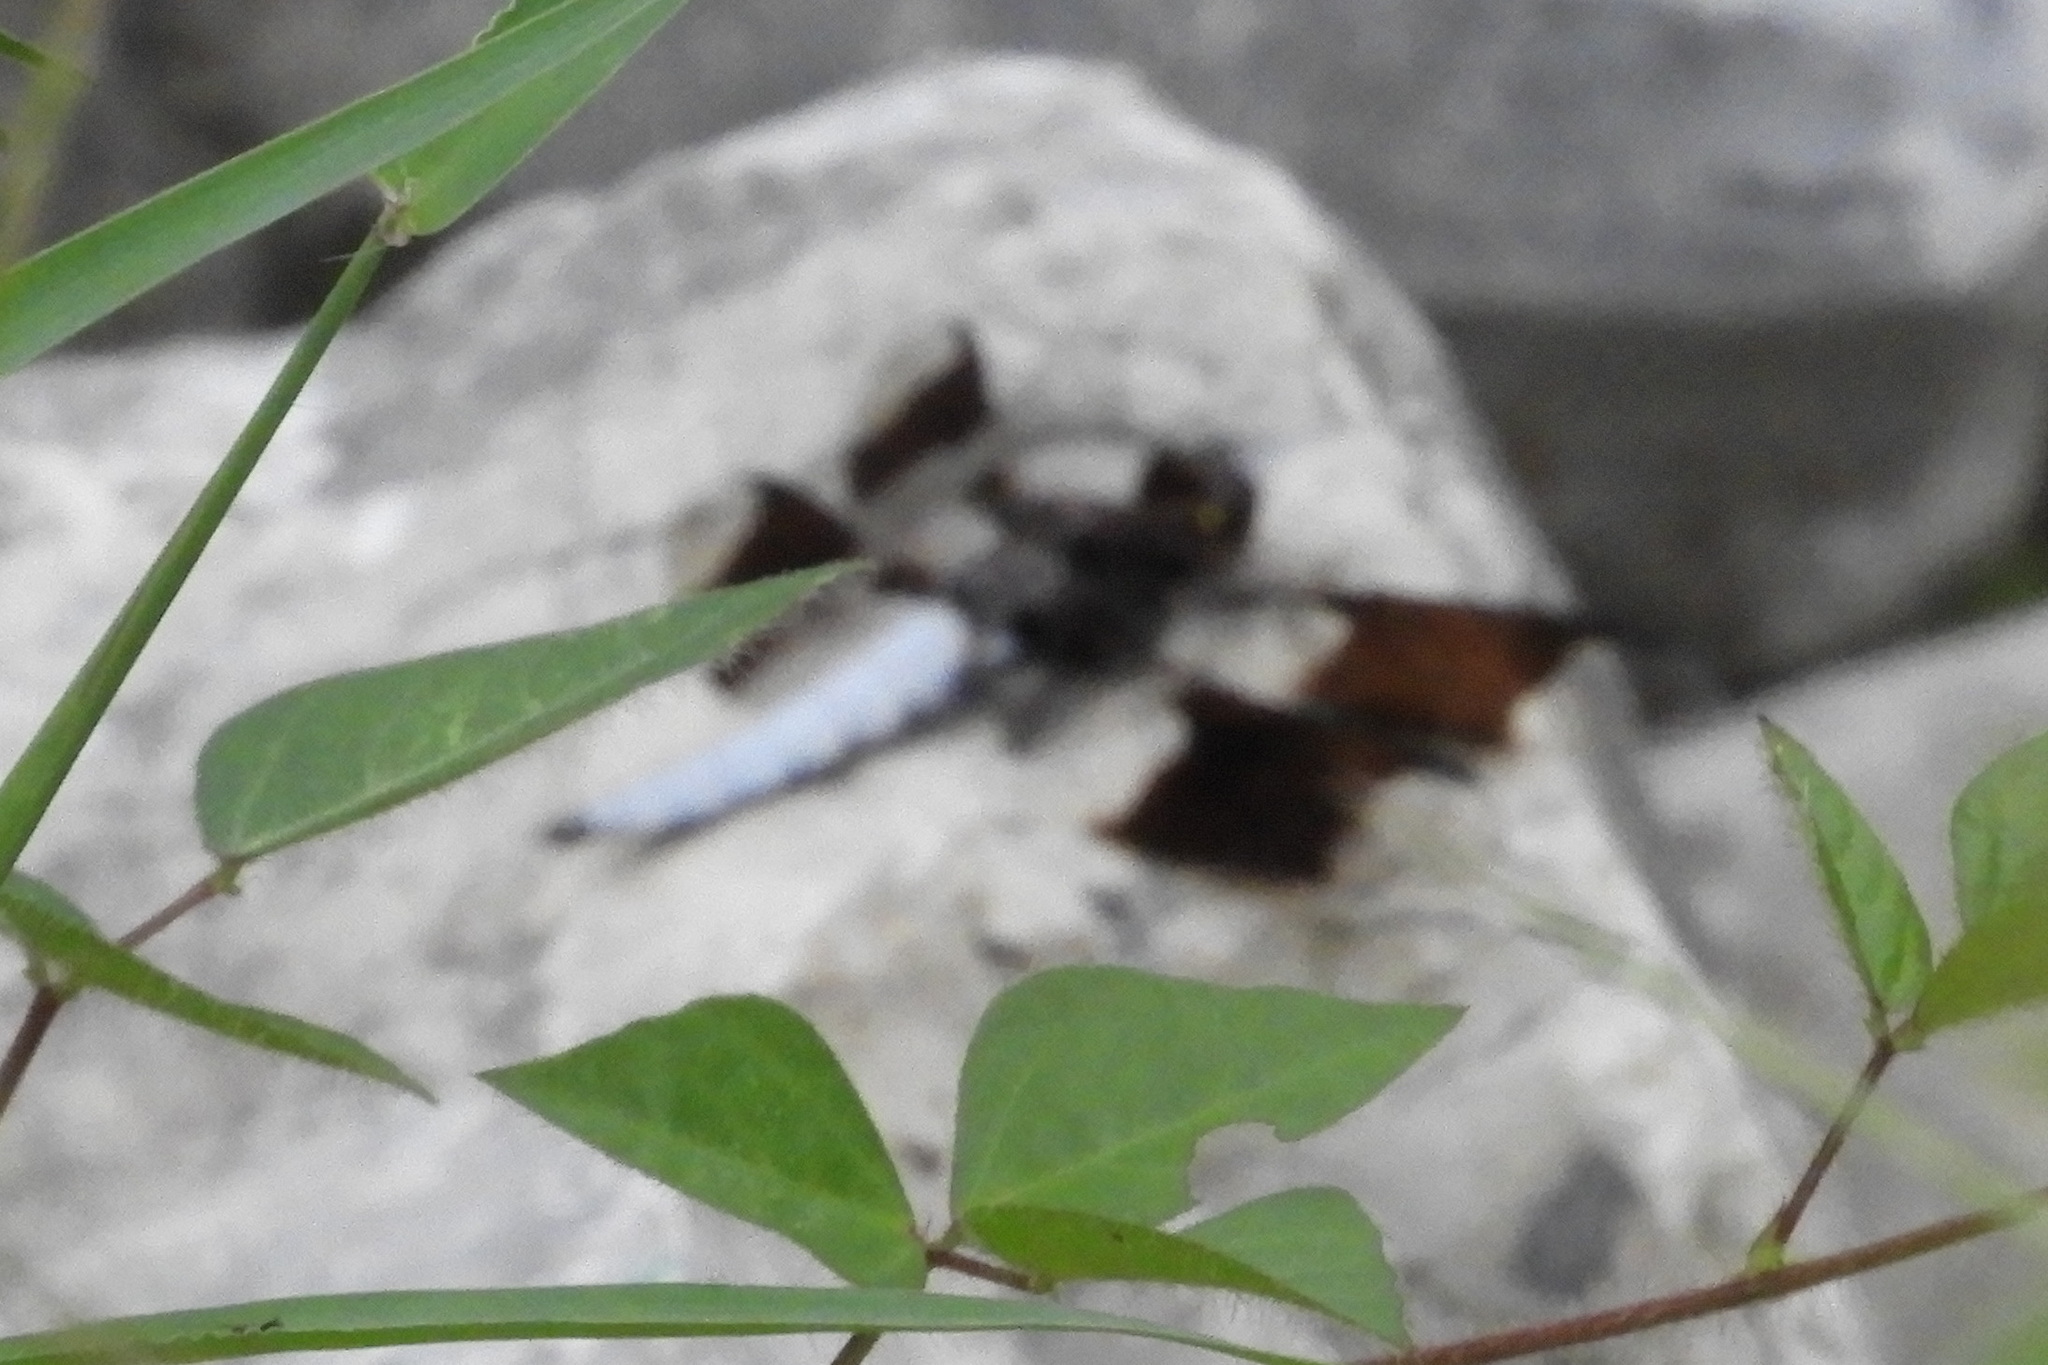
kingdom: Animalia
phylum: Arthropoda
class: Insecta
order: Odonata
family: Libellulidae
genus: Plathemis
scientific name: Plathemis lydia
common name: Common whitetail
